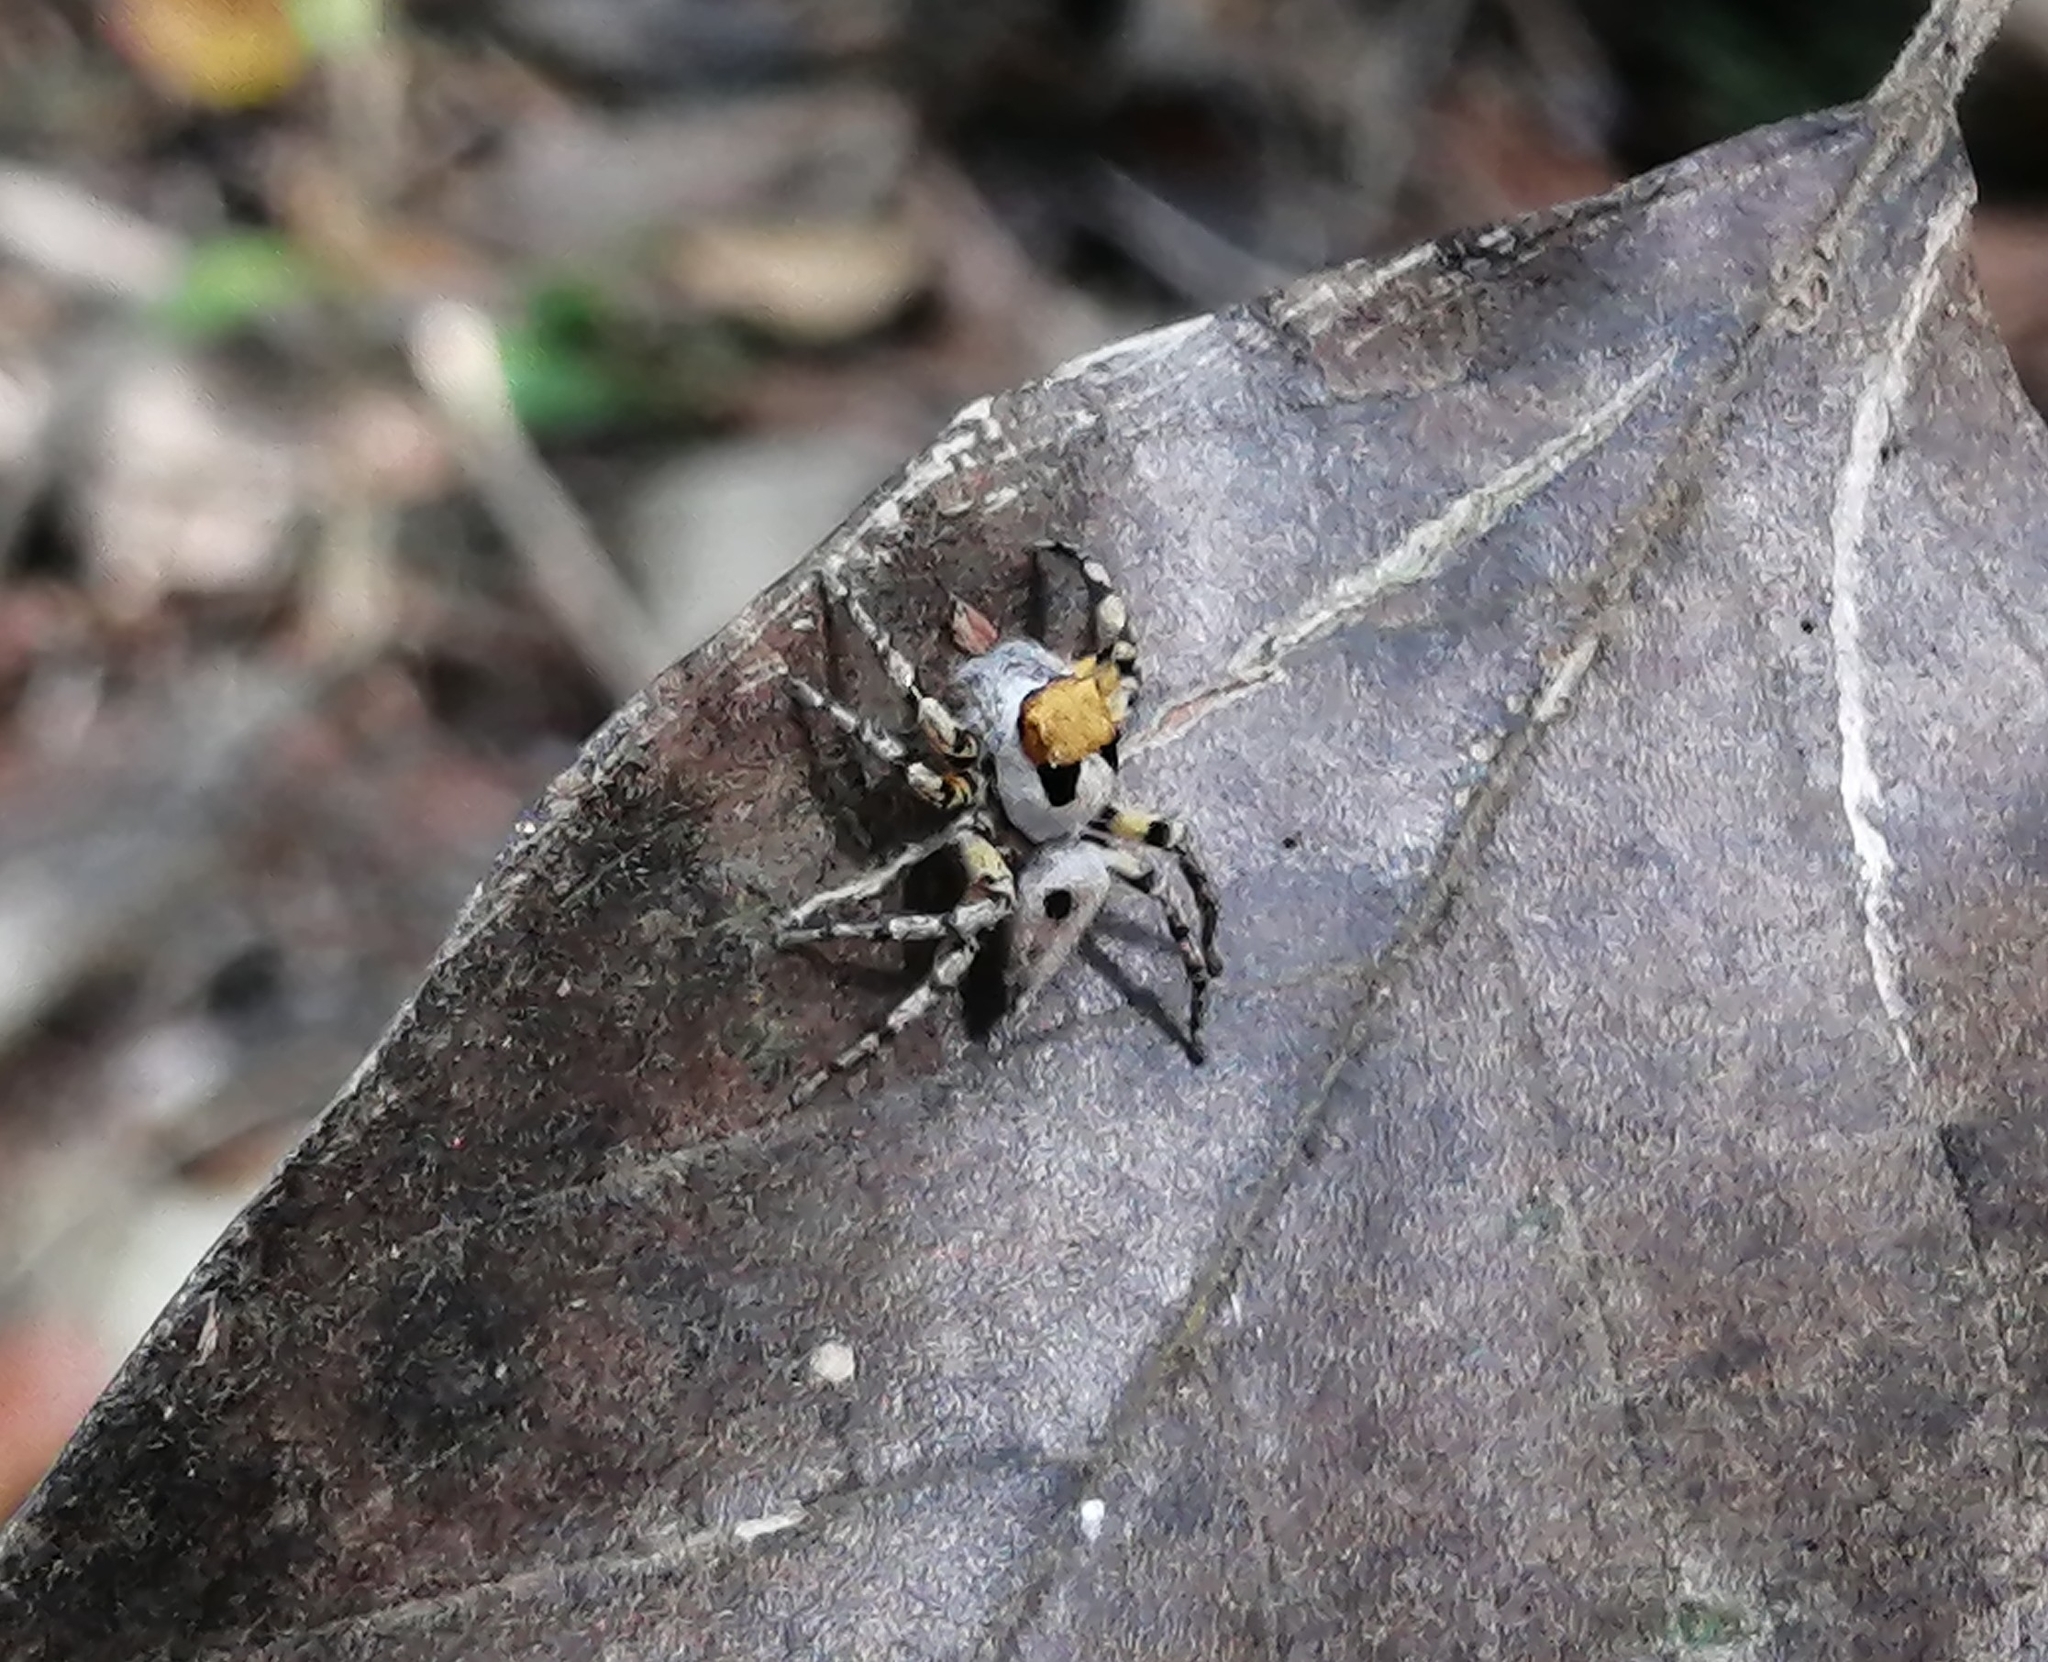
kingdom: Animalia
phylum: Arthropoda
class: Arachnida
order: Araneae
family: Salticidae
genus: Tarkas
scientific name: Tarkas maculatipes
